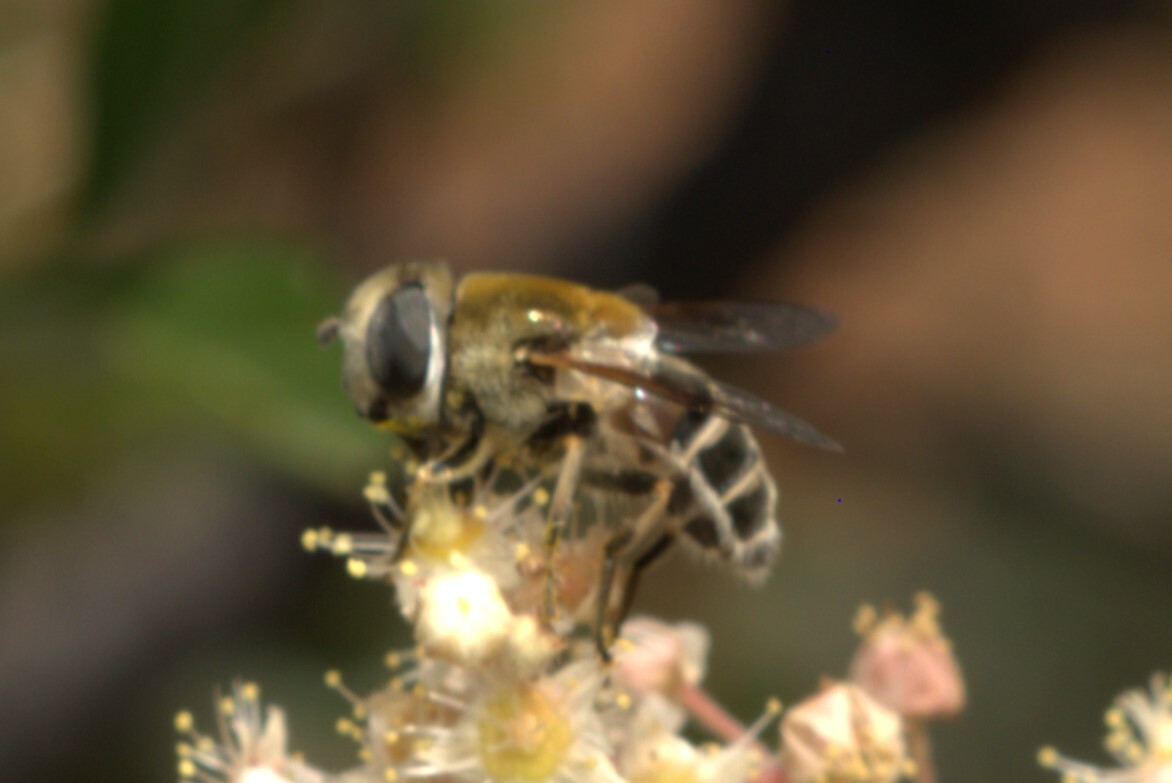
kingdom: Animalia
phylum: Arthropoda
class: Insecta
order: Diptera
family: Syrphidae
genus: Eristalis
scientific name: Eristalis hirta
